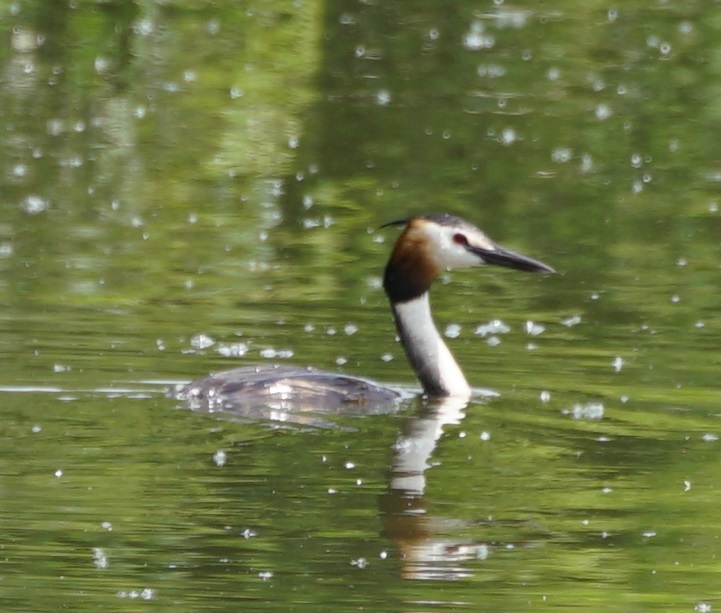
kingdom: Animalia
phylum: Chordata
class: Aves
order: Podicipediformes
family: Podicipedidae
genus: Podiceps
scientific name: Podiceps cristatus
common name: Great crested grebe
